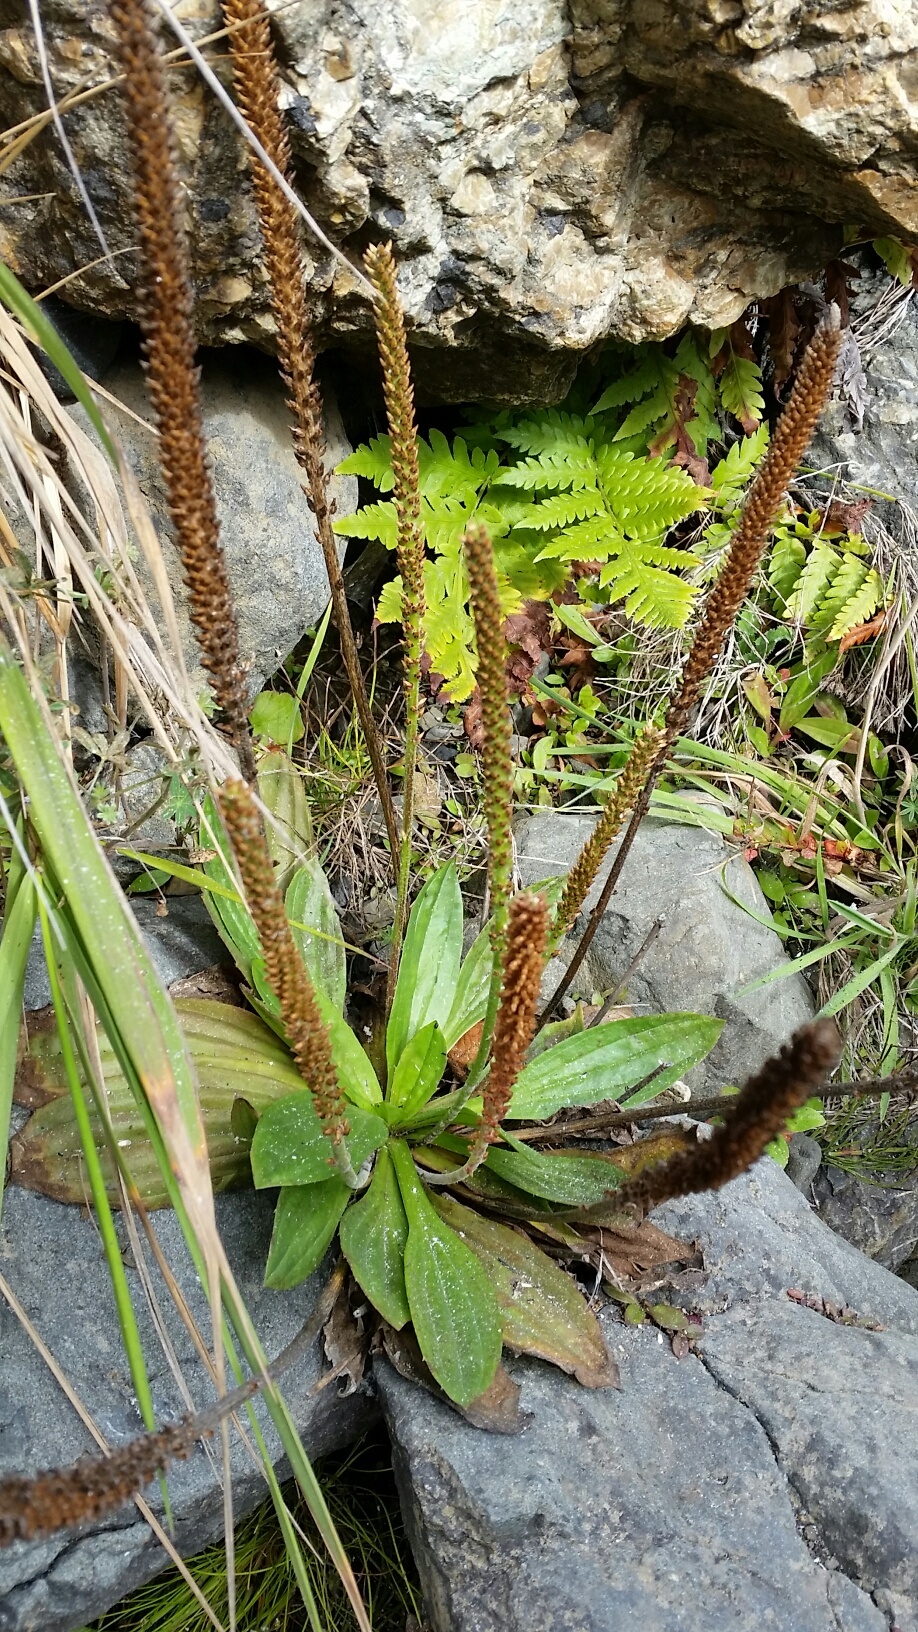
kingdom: Plantae
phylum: Tracheophyta
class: Magnoliopsida
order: Lamiales
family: Plantaginaceae
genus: Plantago
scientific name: Plantago subnuda
